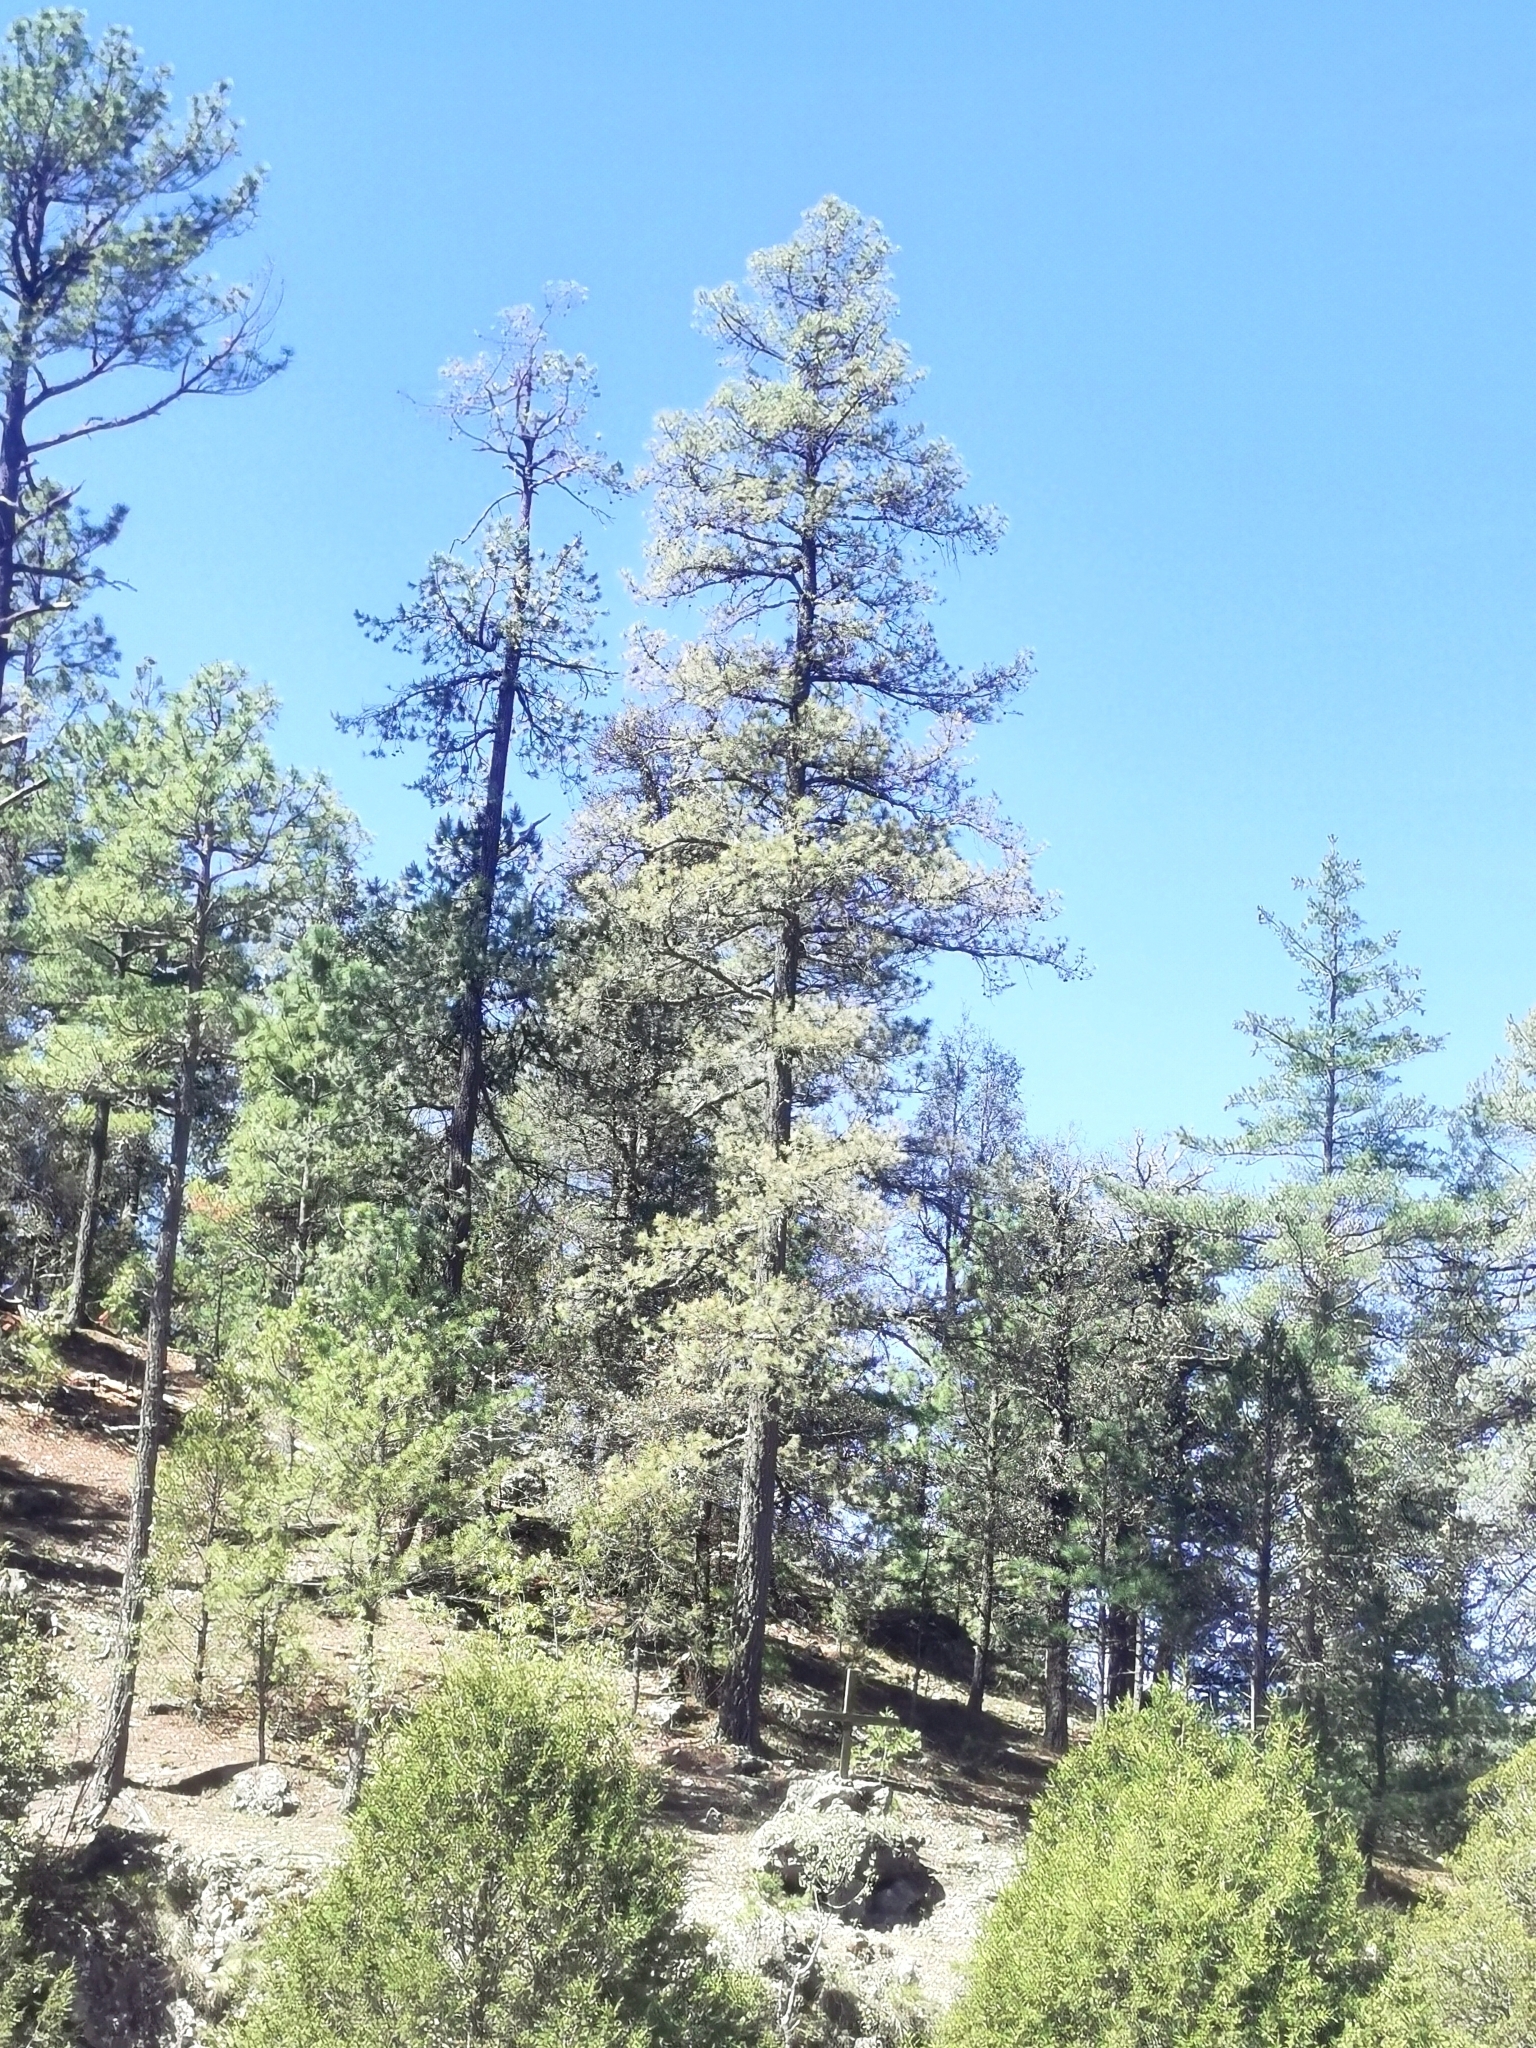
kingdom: Plantae
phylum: Tracheophyta
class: Pinopsida
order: Pinales
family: Pinaceae
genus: Pinus
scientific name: Pinus leiophylla
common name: Chihuahua pine
